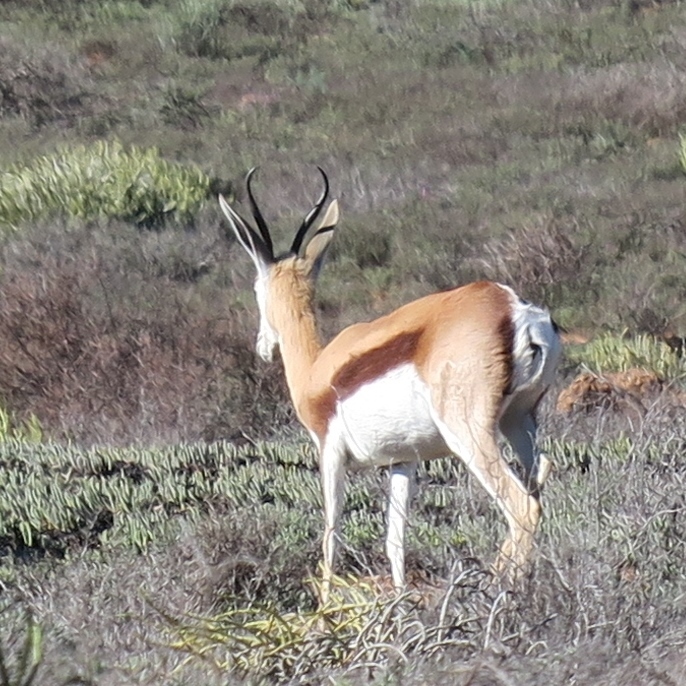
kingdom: Animalia
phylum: Chordata
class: Mammalia
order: Artiodactyla
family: Bovidae
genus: Antidorcas
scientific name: Antidorcas marsupialis
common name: Springbok
